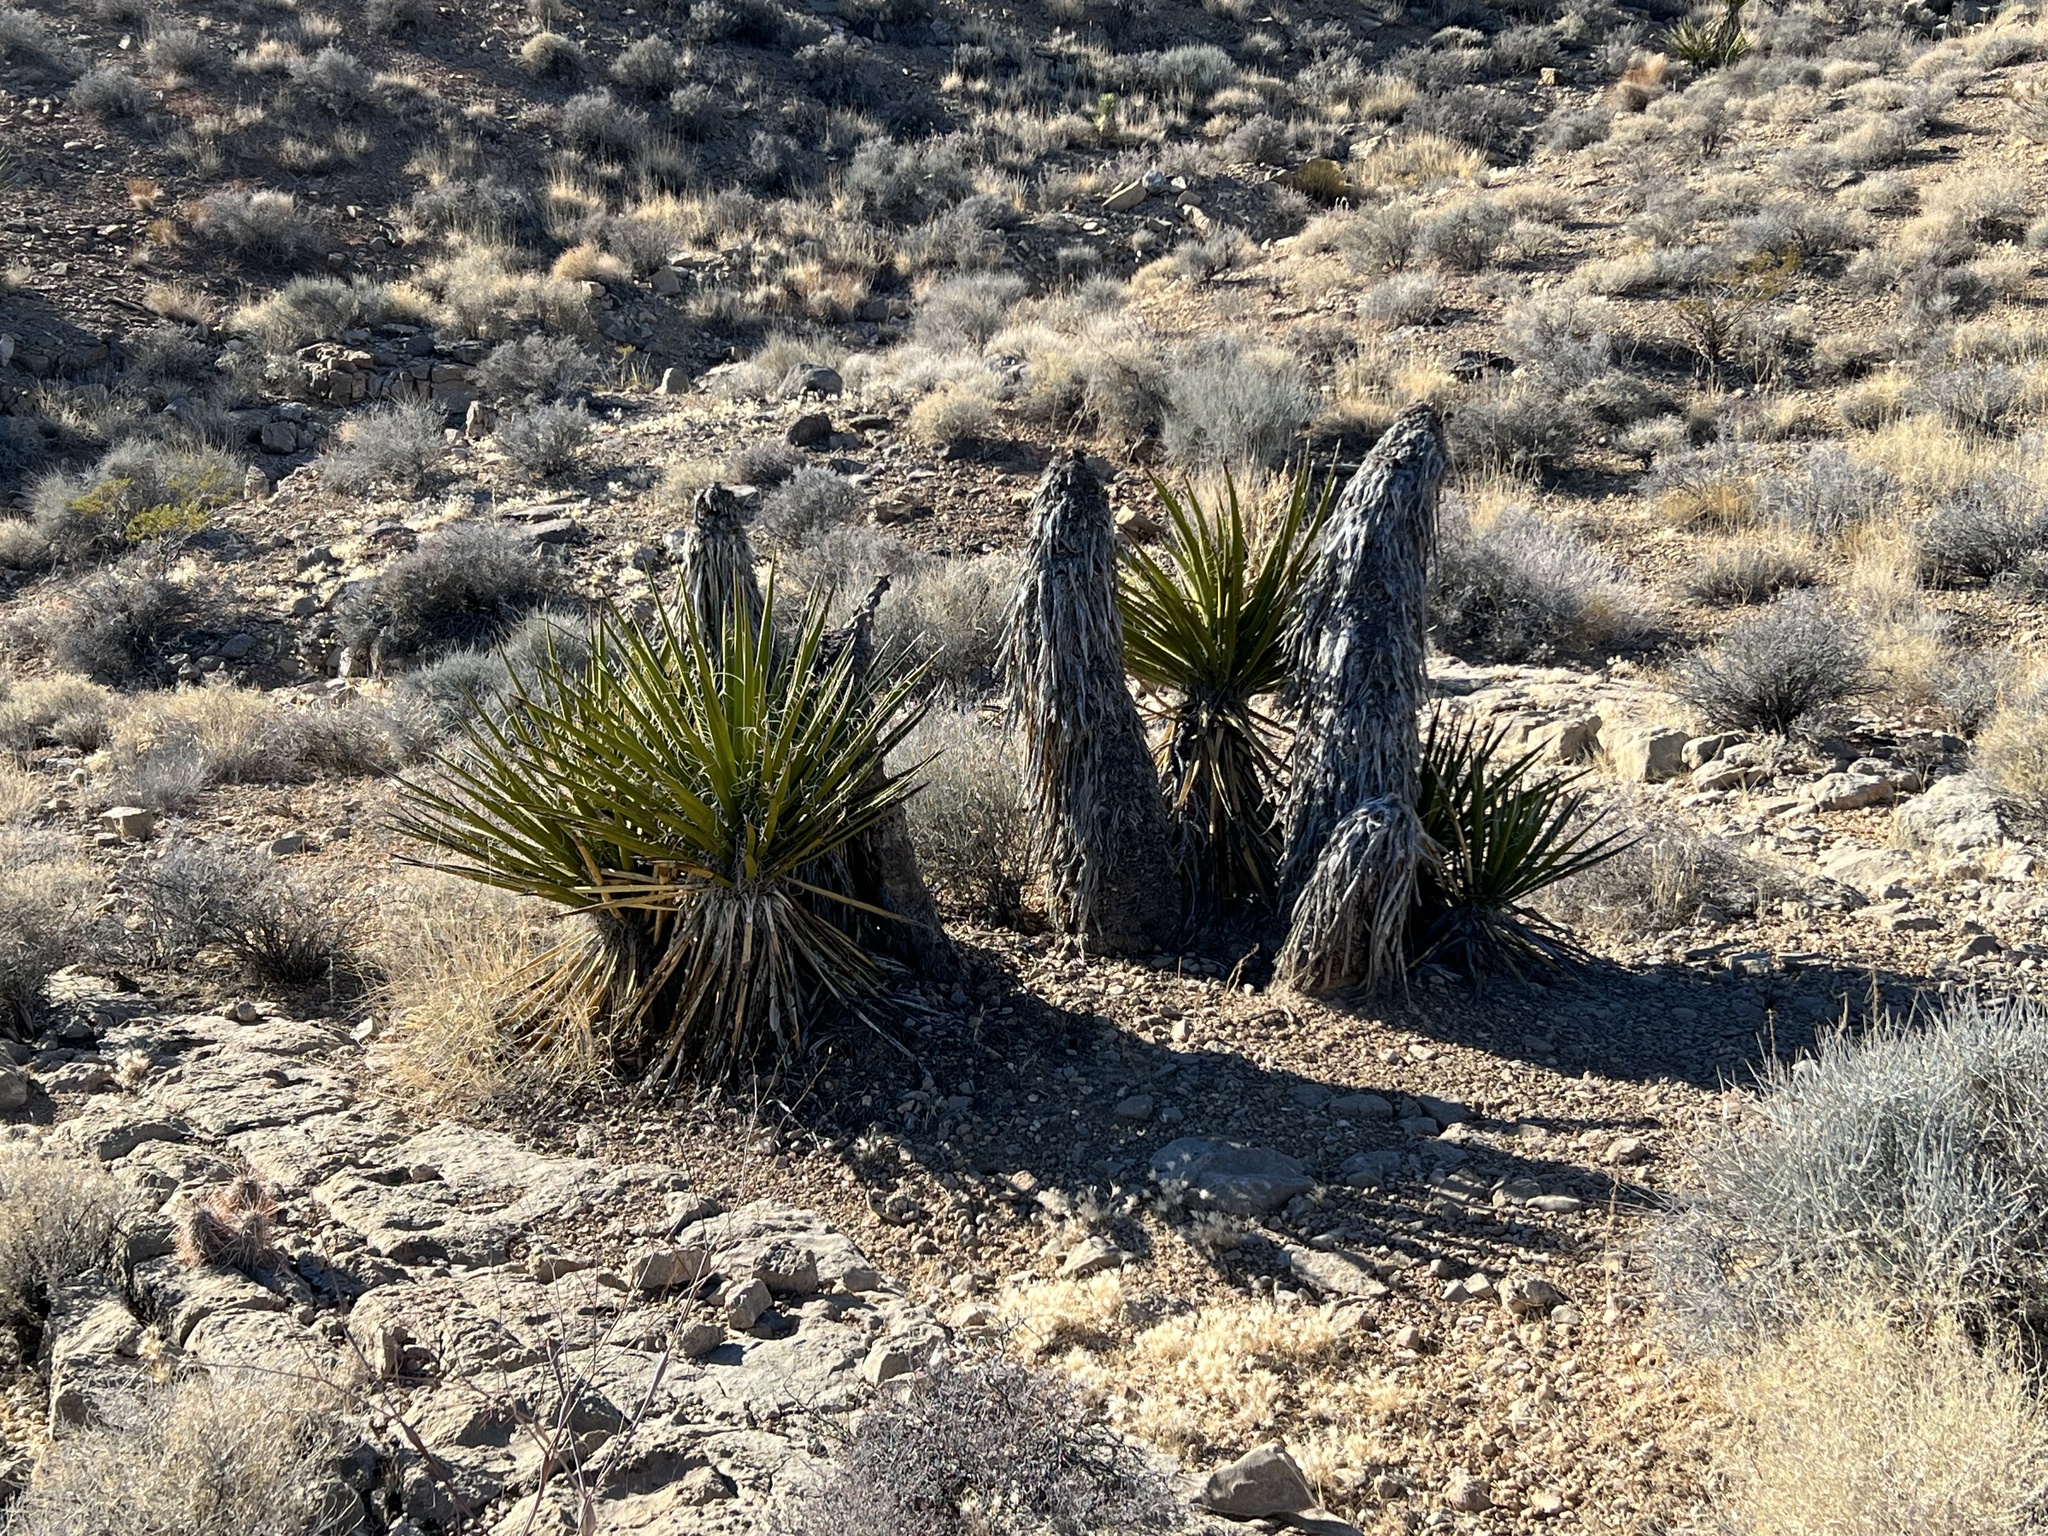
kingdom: Plantae
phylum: Tracheophyta
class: Liliopsida
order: Asparagales
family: Asparagaceae
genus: Yucca
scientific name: Yucca schidigera
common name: Mojave yucca
